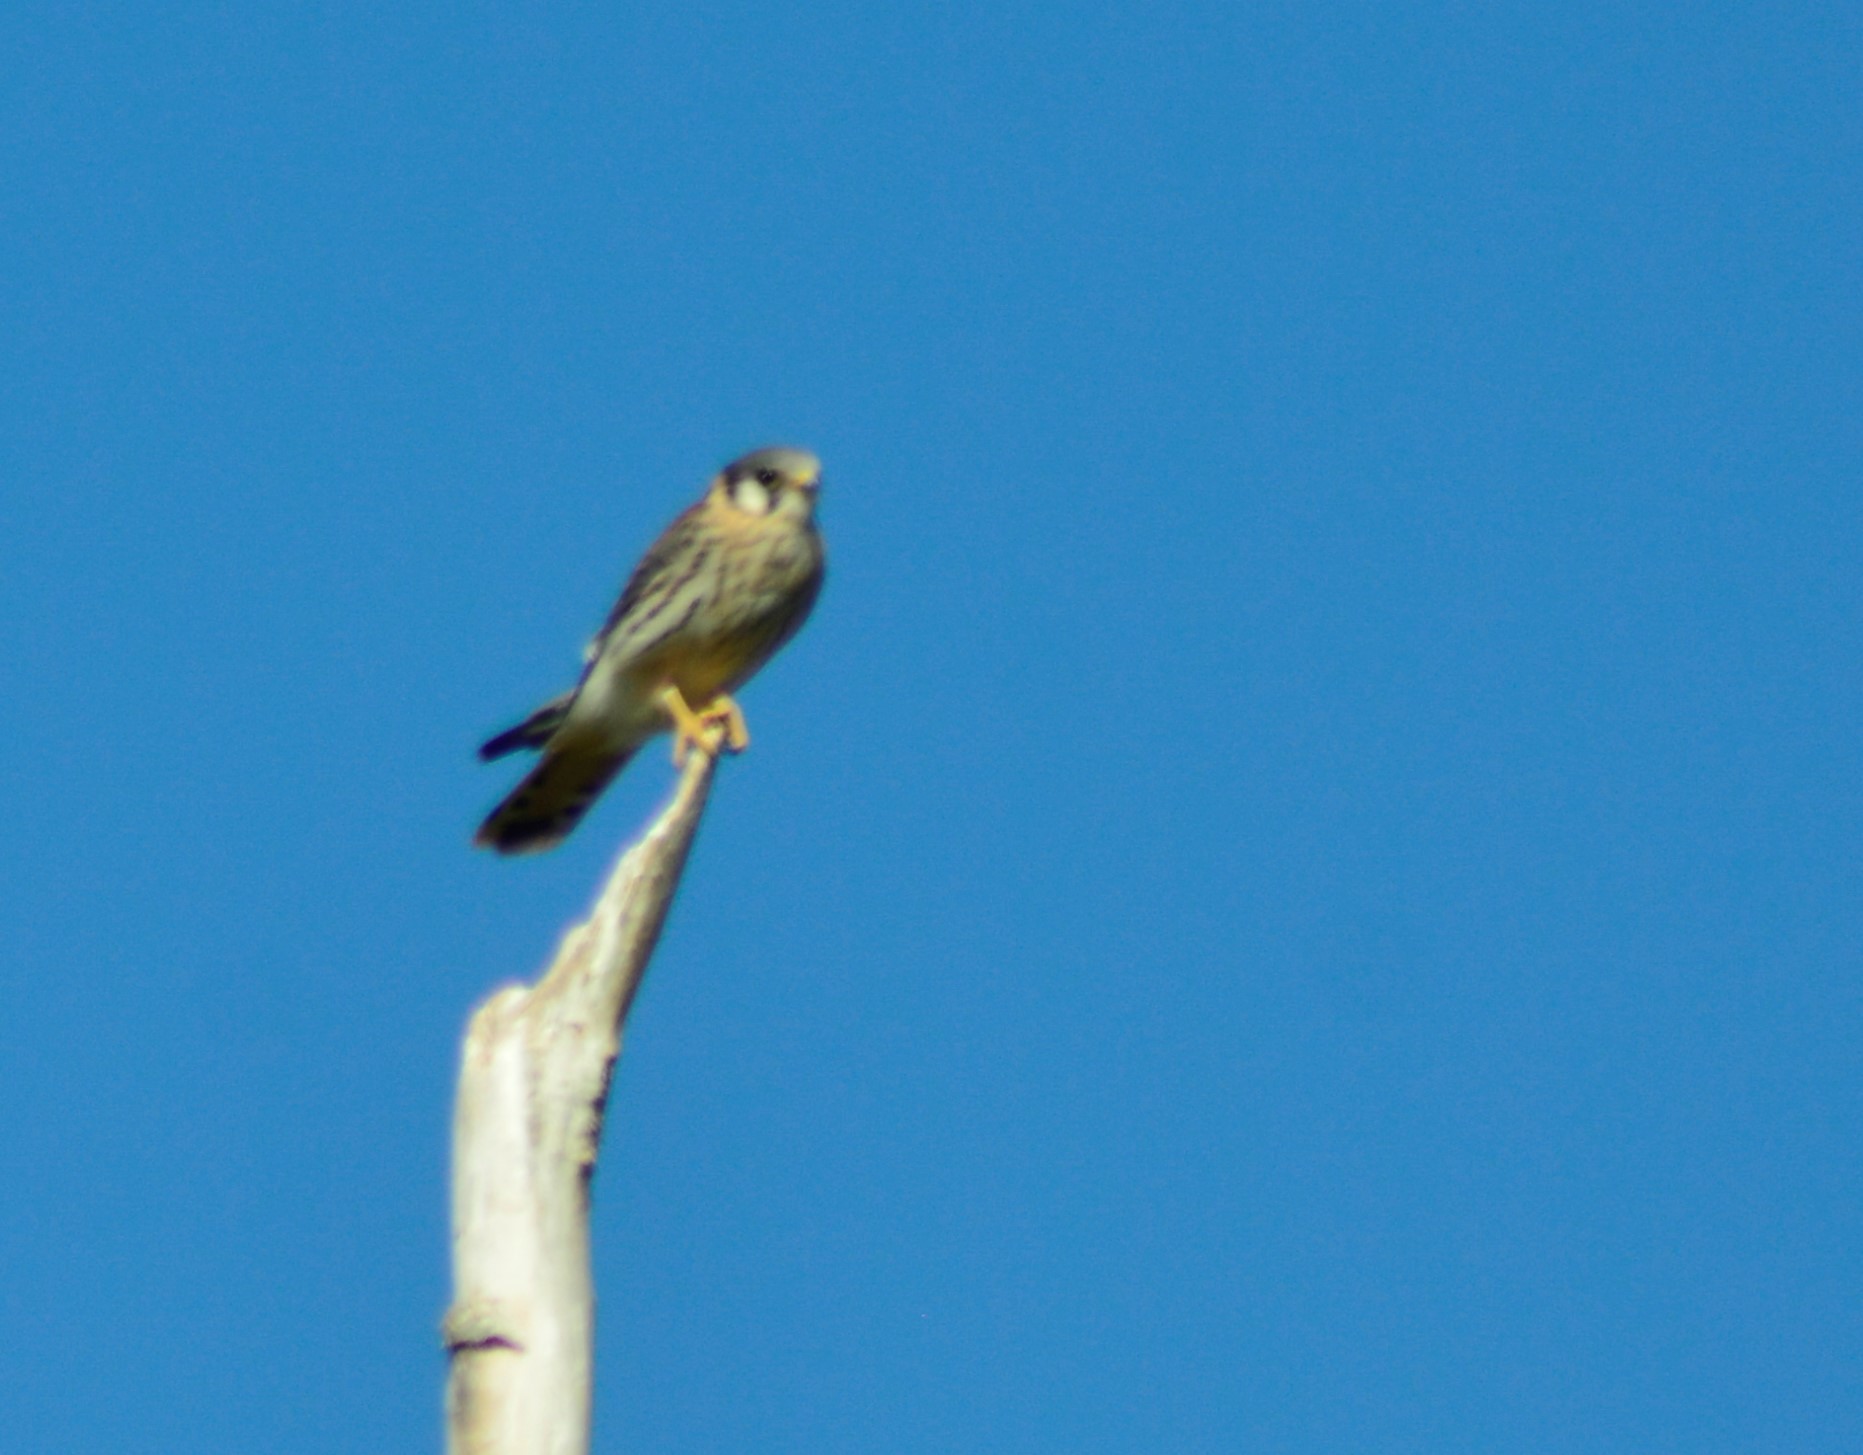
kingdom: Animalia
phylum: Chordata
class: Aves
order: Falconiformes
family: Falconidae
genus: Falco
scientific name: Falco sparverius
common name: American kestrel
